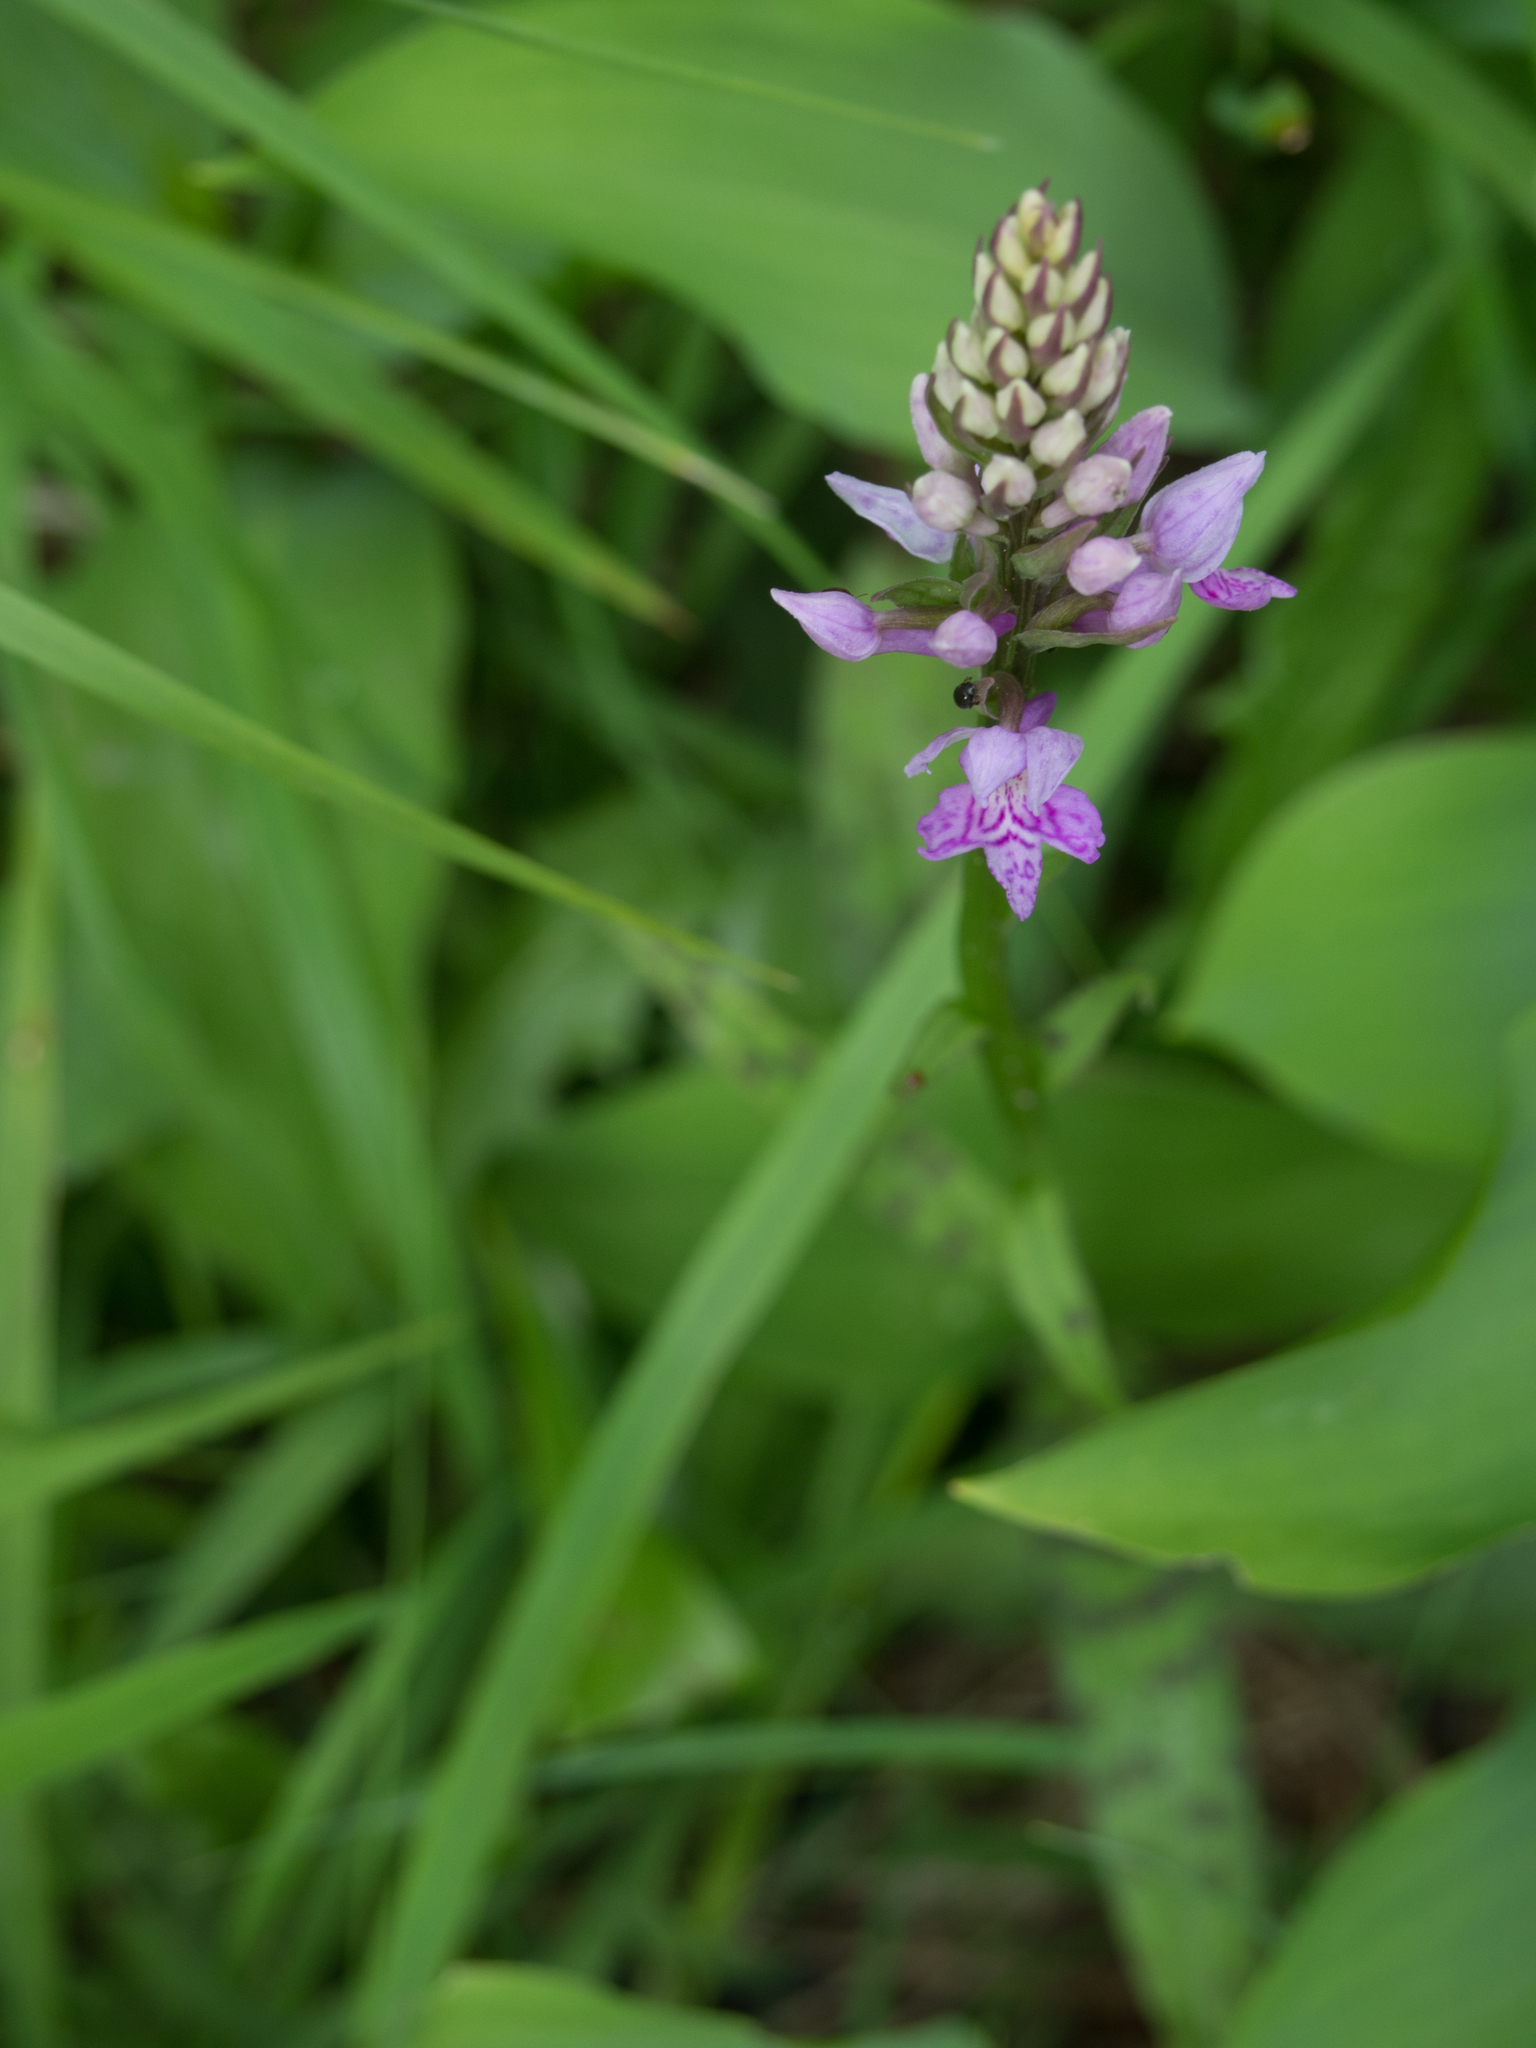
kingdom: Plantae
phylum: Tracheophyta
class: Liliopsida
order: Asparagales
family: Orchidaceae
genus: Dactylorhiza
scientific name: Dactylorhiza maculata
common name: Heath spotted-orchid
